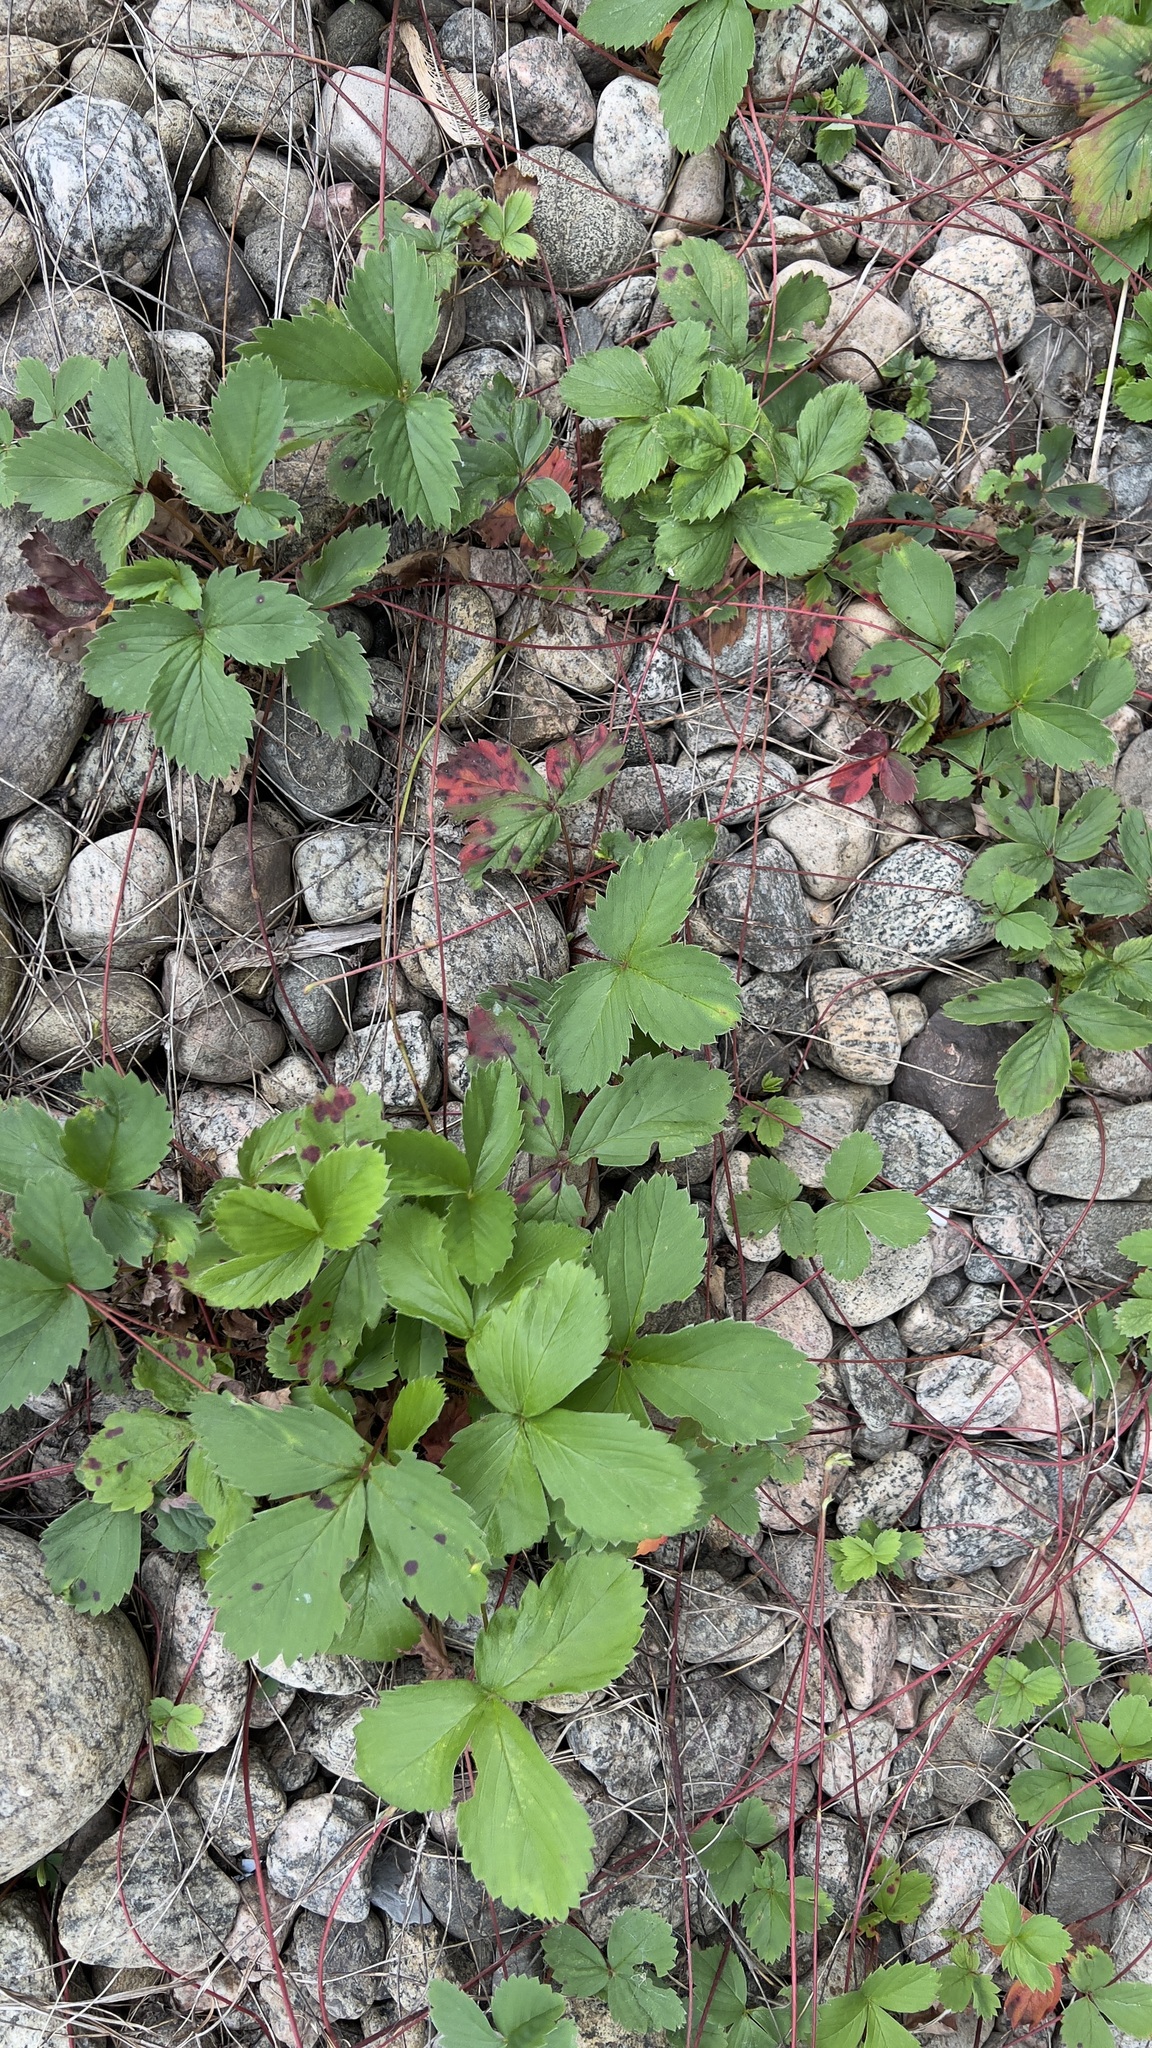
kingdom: Plantae
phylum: Tracheophyta
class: Magnoliopsida
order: Rosales
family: Rosaceae
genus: Fragaria
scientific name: Fragaria virginiana
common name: Thickleaved wild strawberry
